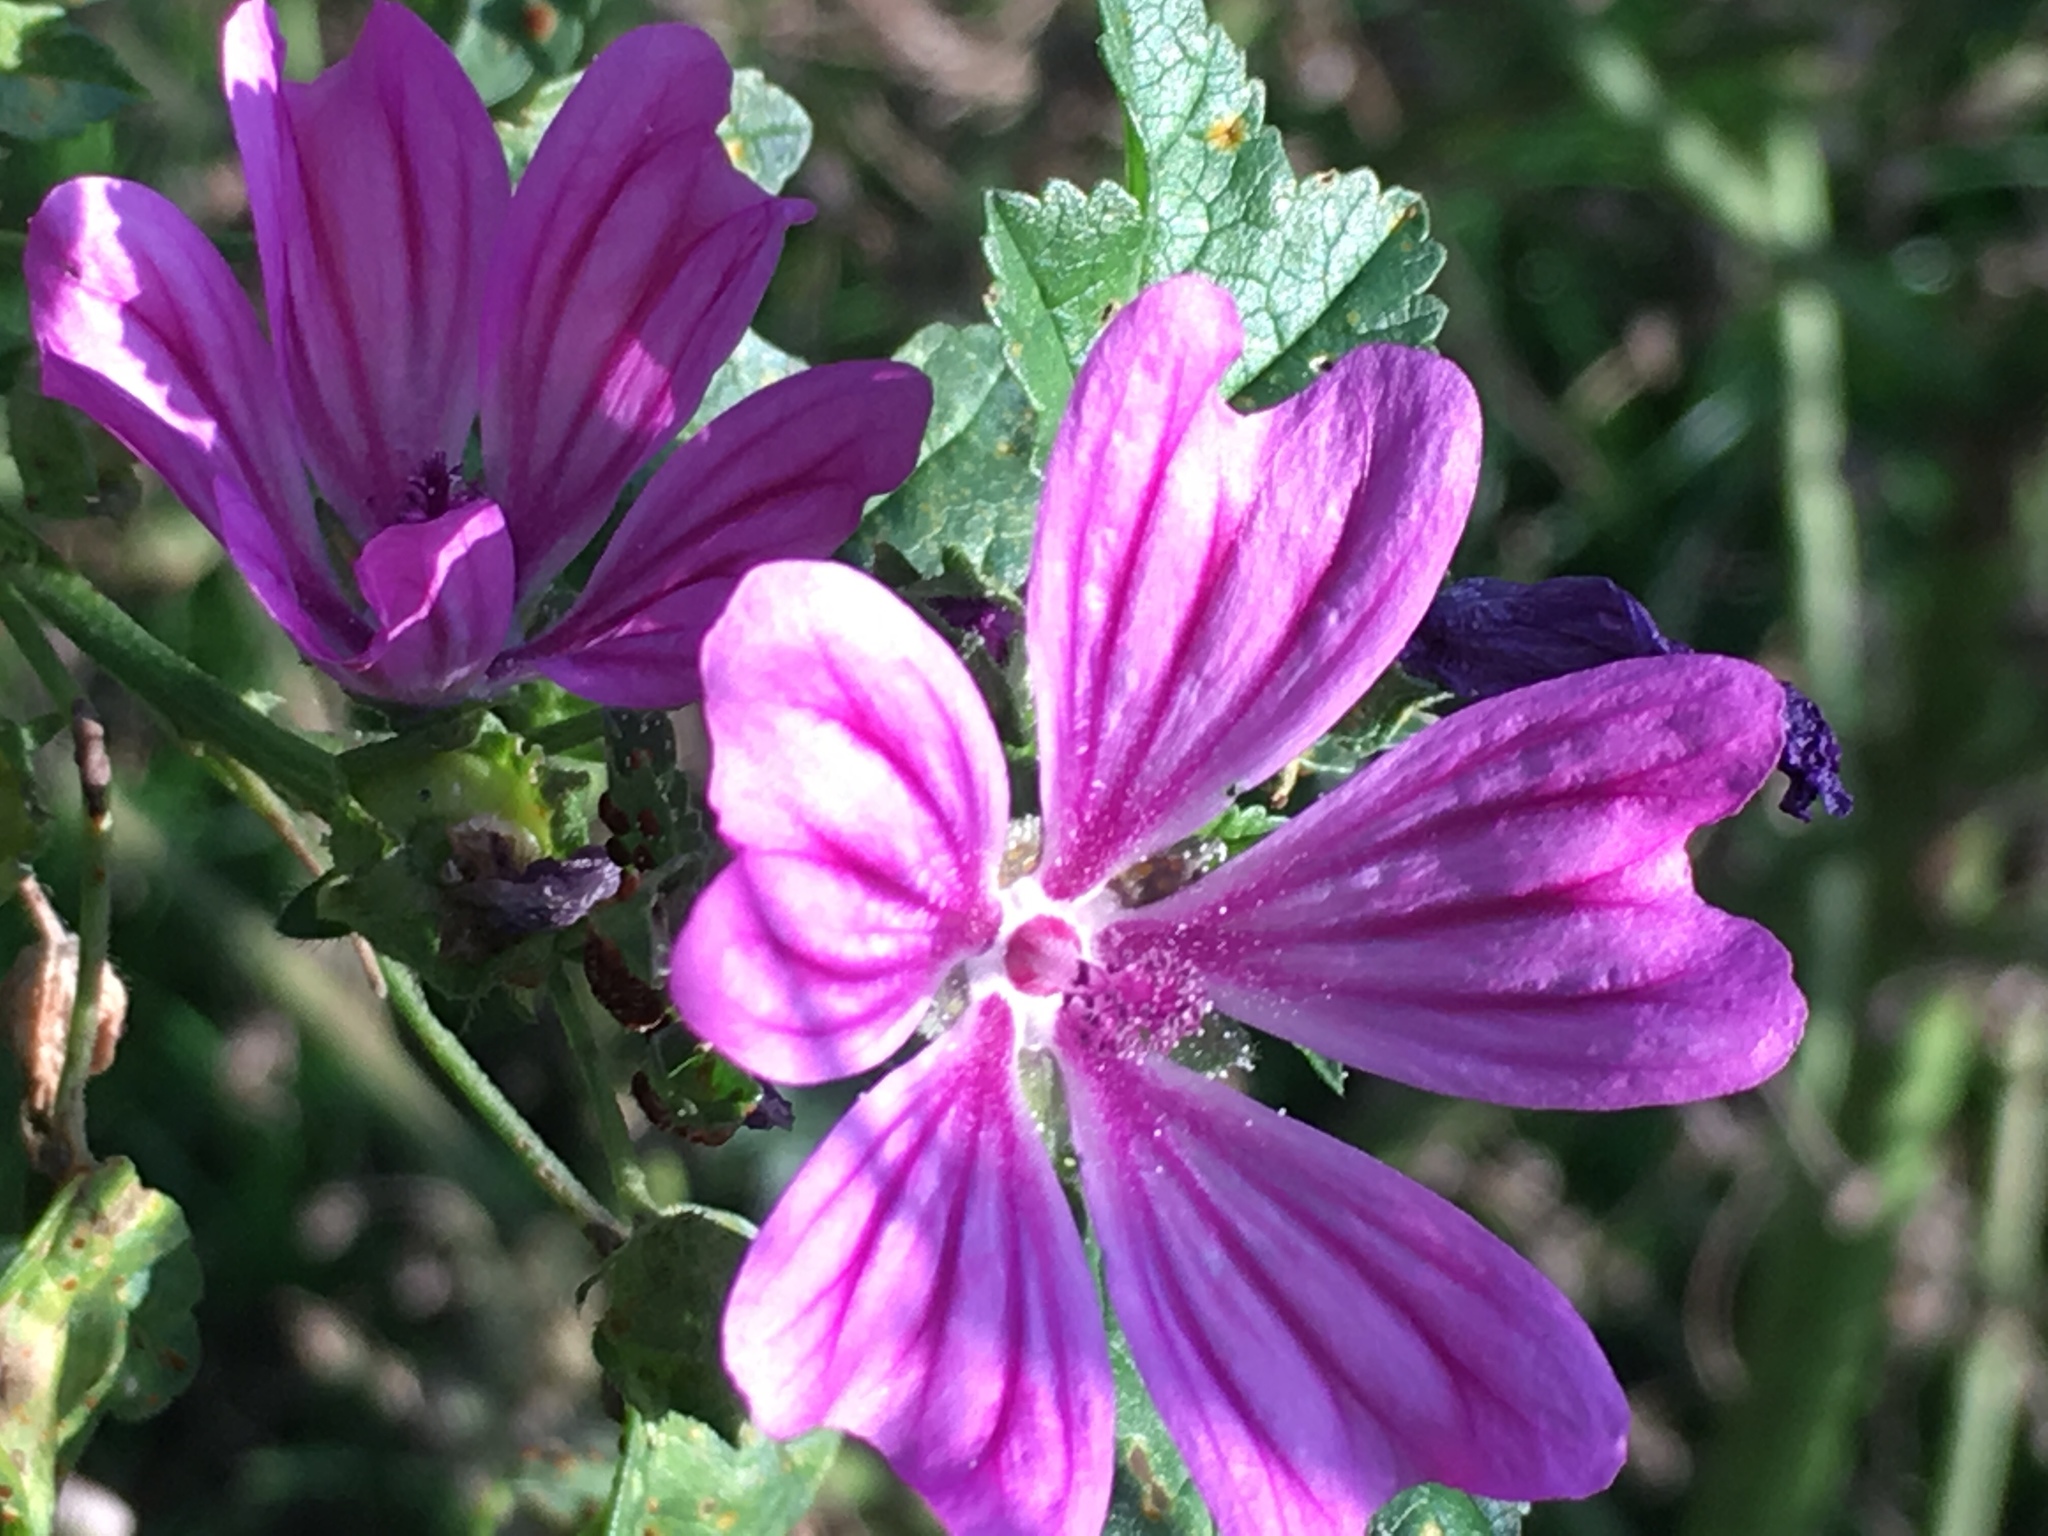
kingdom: Plantae
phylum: Tracheophyta
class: Magnoliopsida
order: Malvales
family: Malvaceae
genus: Malva
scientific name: Malva sylvestris
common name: Common mallow
